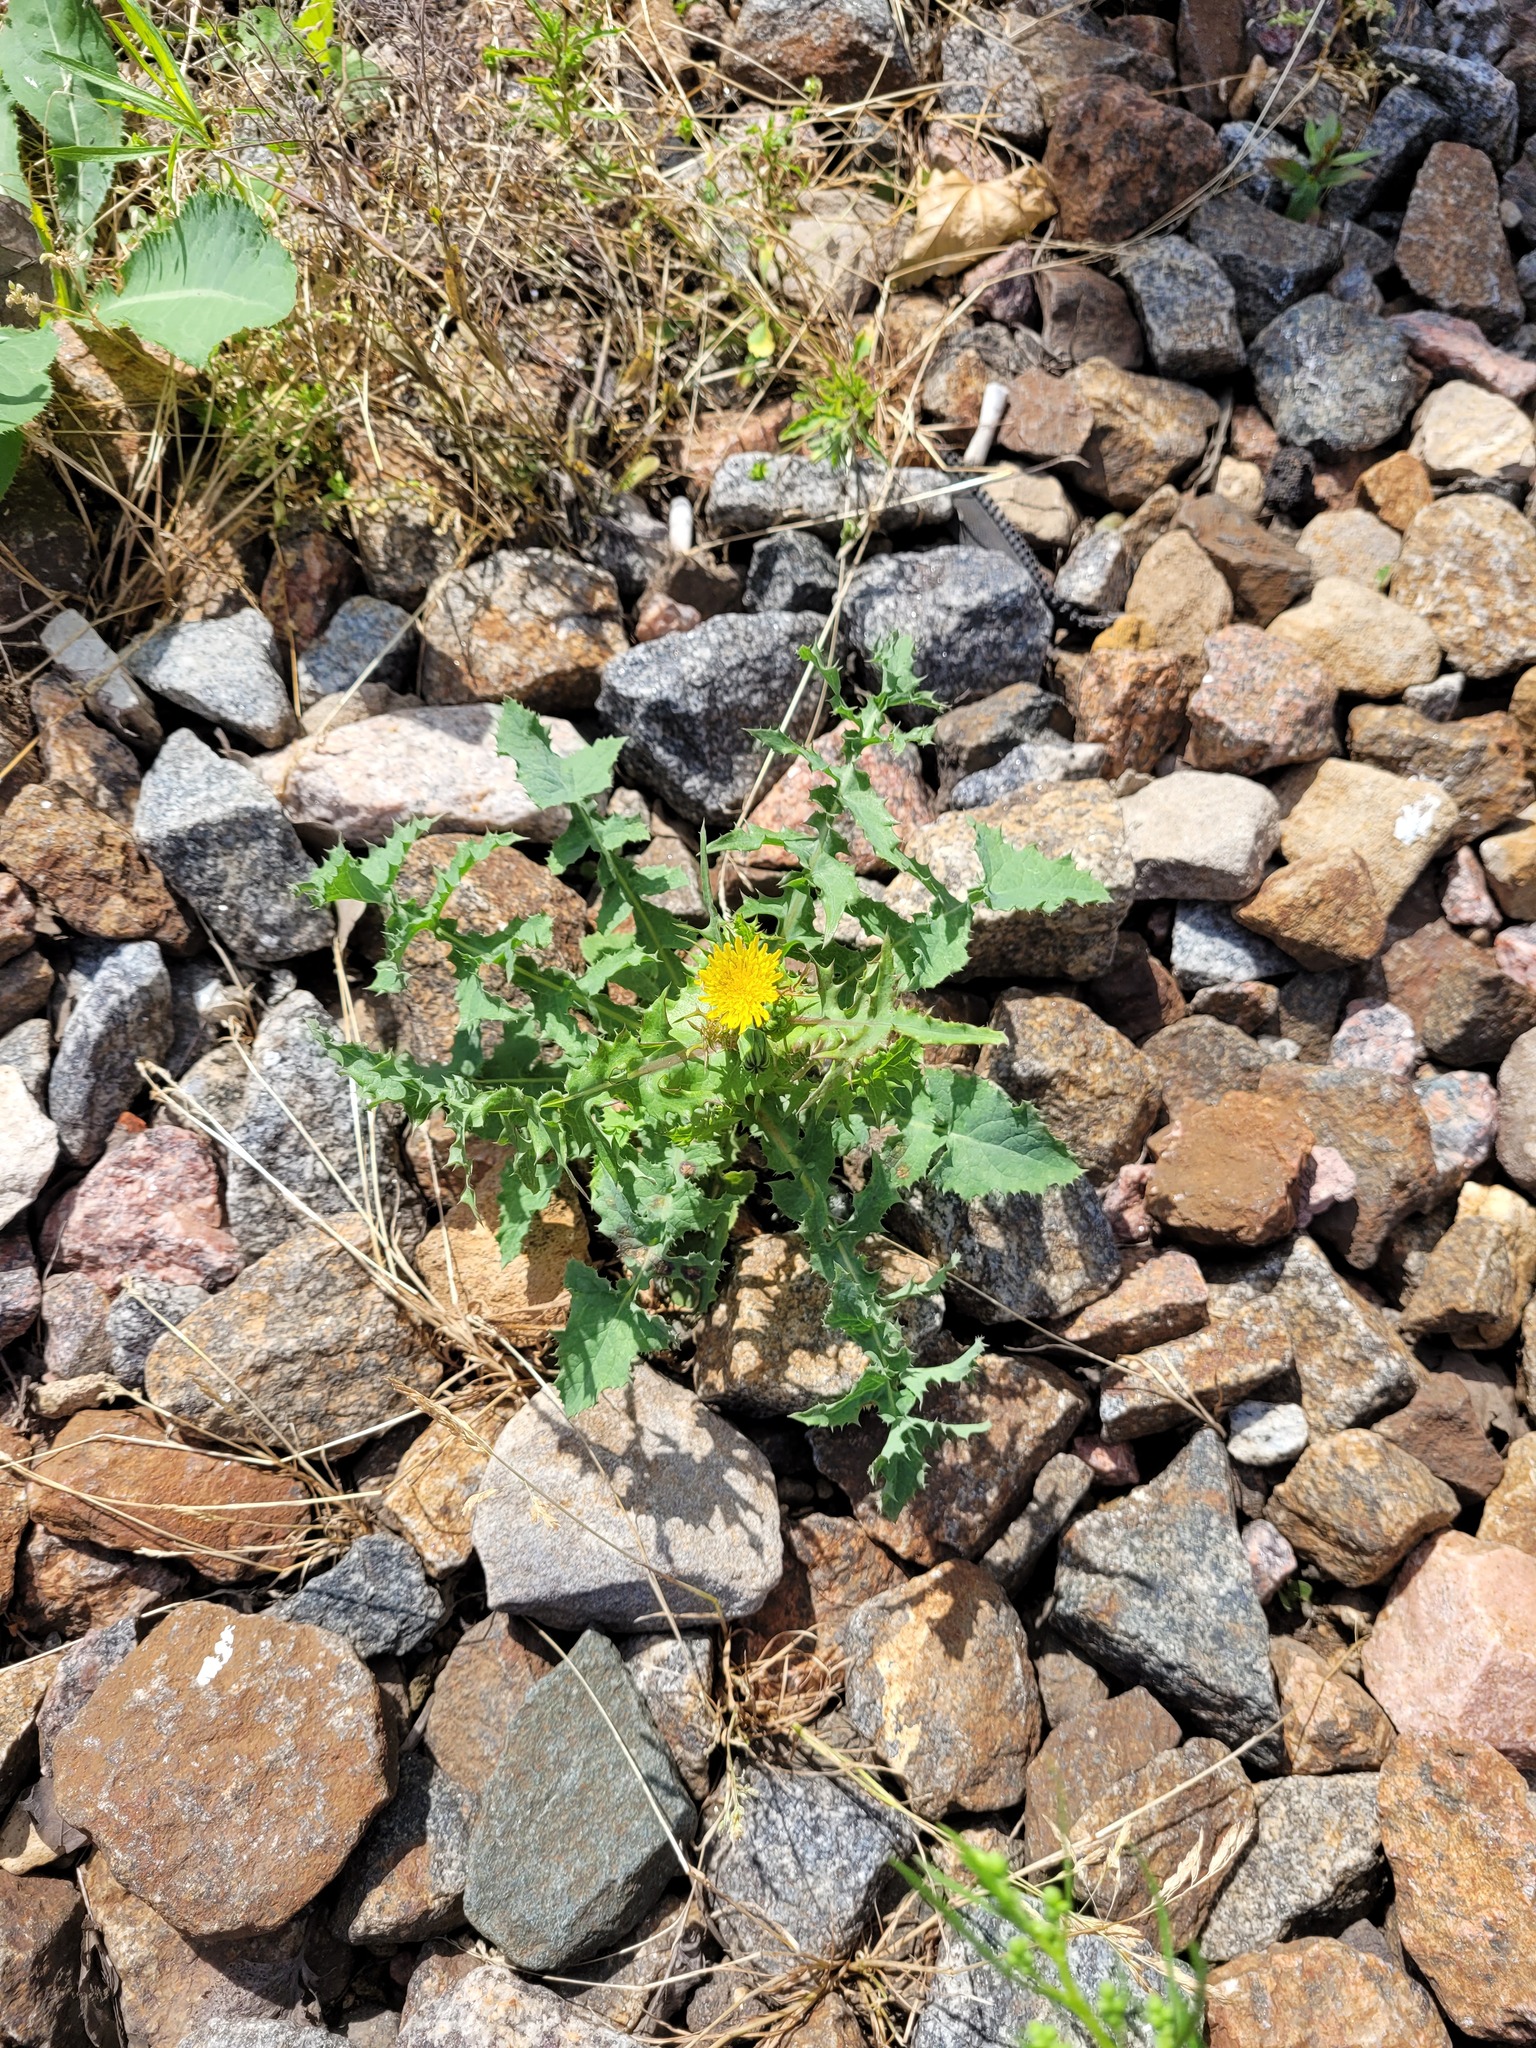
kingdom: Plantae
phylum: Tracheophyta
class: Magnoliopsida
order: Asterales
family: Asteraceae
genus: Sonchus
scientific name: Sonchus oleraceus
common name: Common sowthistle
